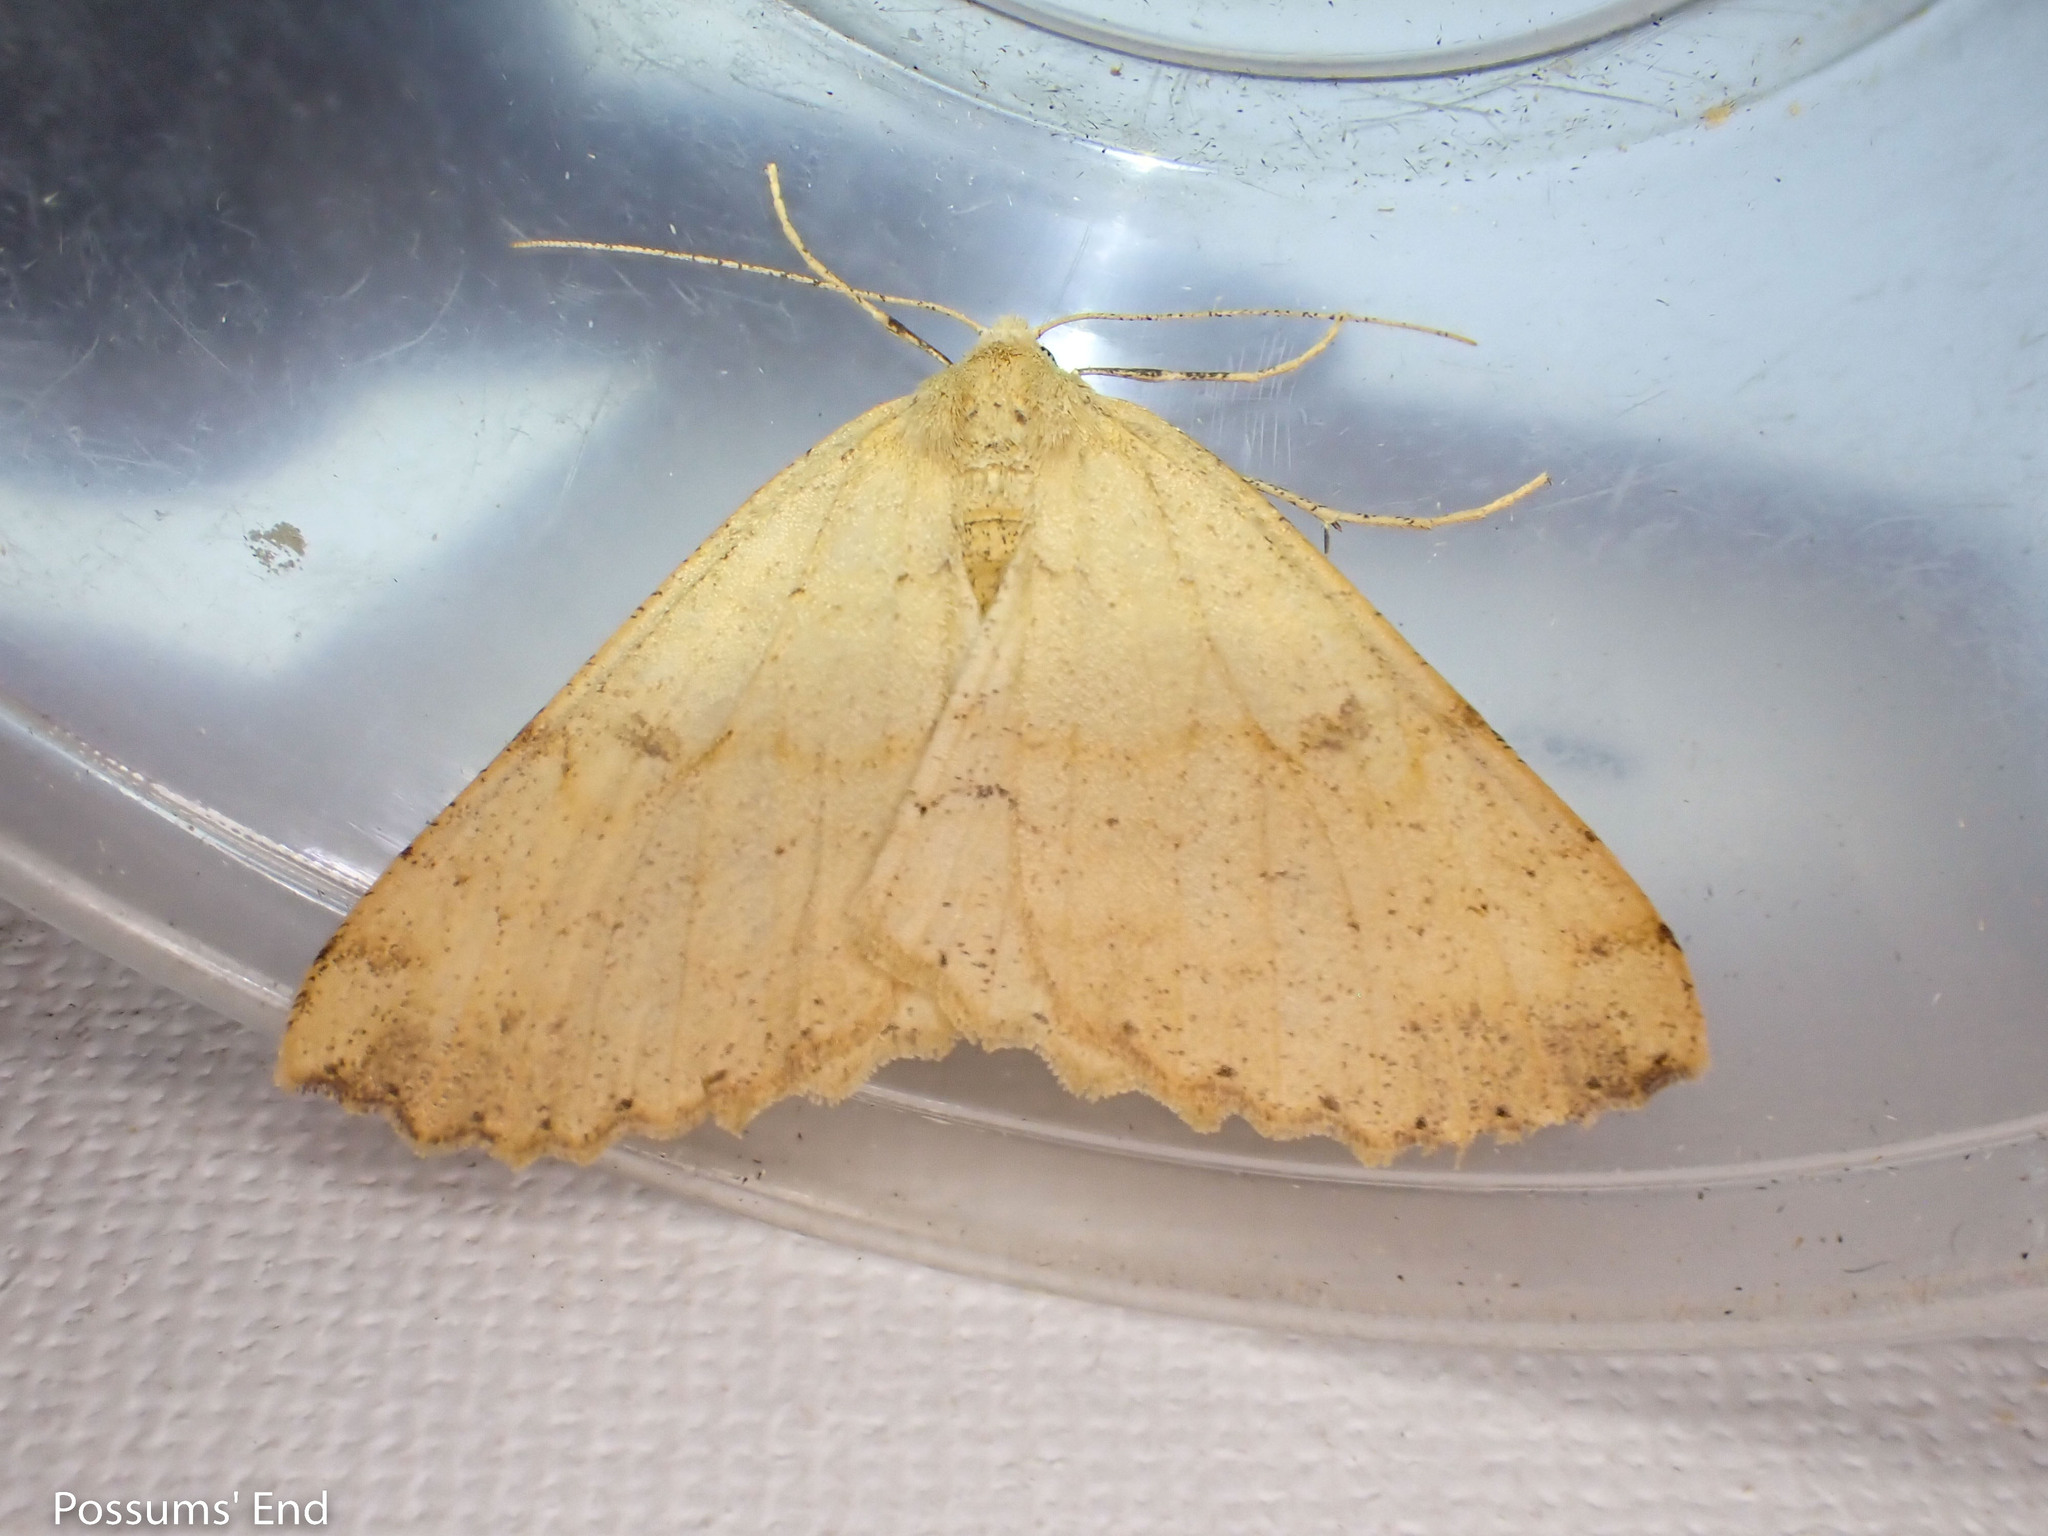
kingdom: Animalia
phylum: Arthropoda
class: Insecta
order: Lepidoptera
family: Geometridae
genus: Cleora
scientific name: Cleora scriptaria
